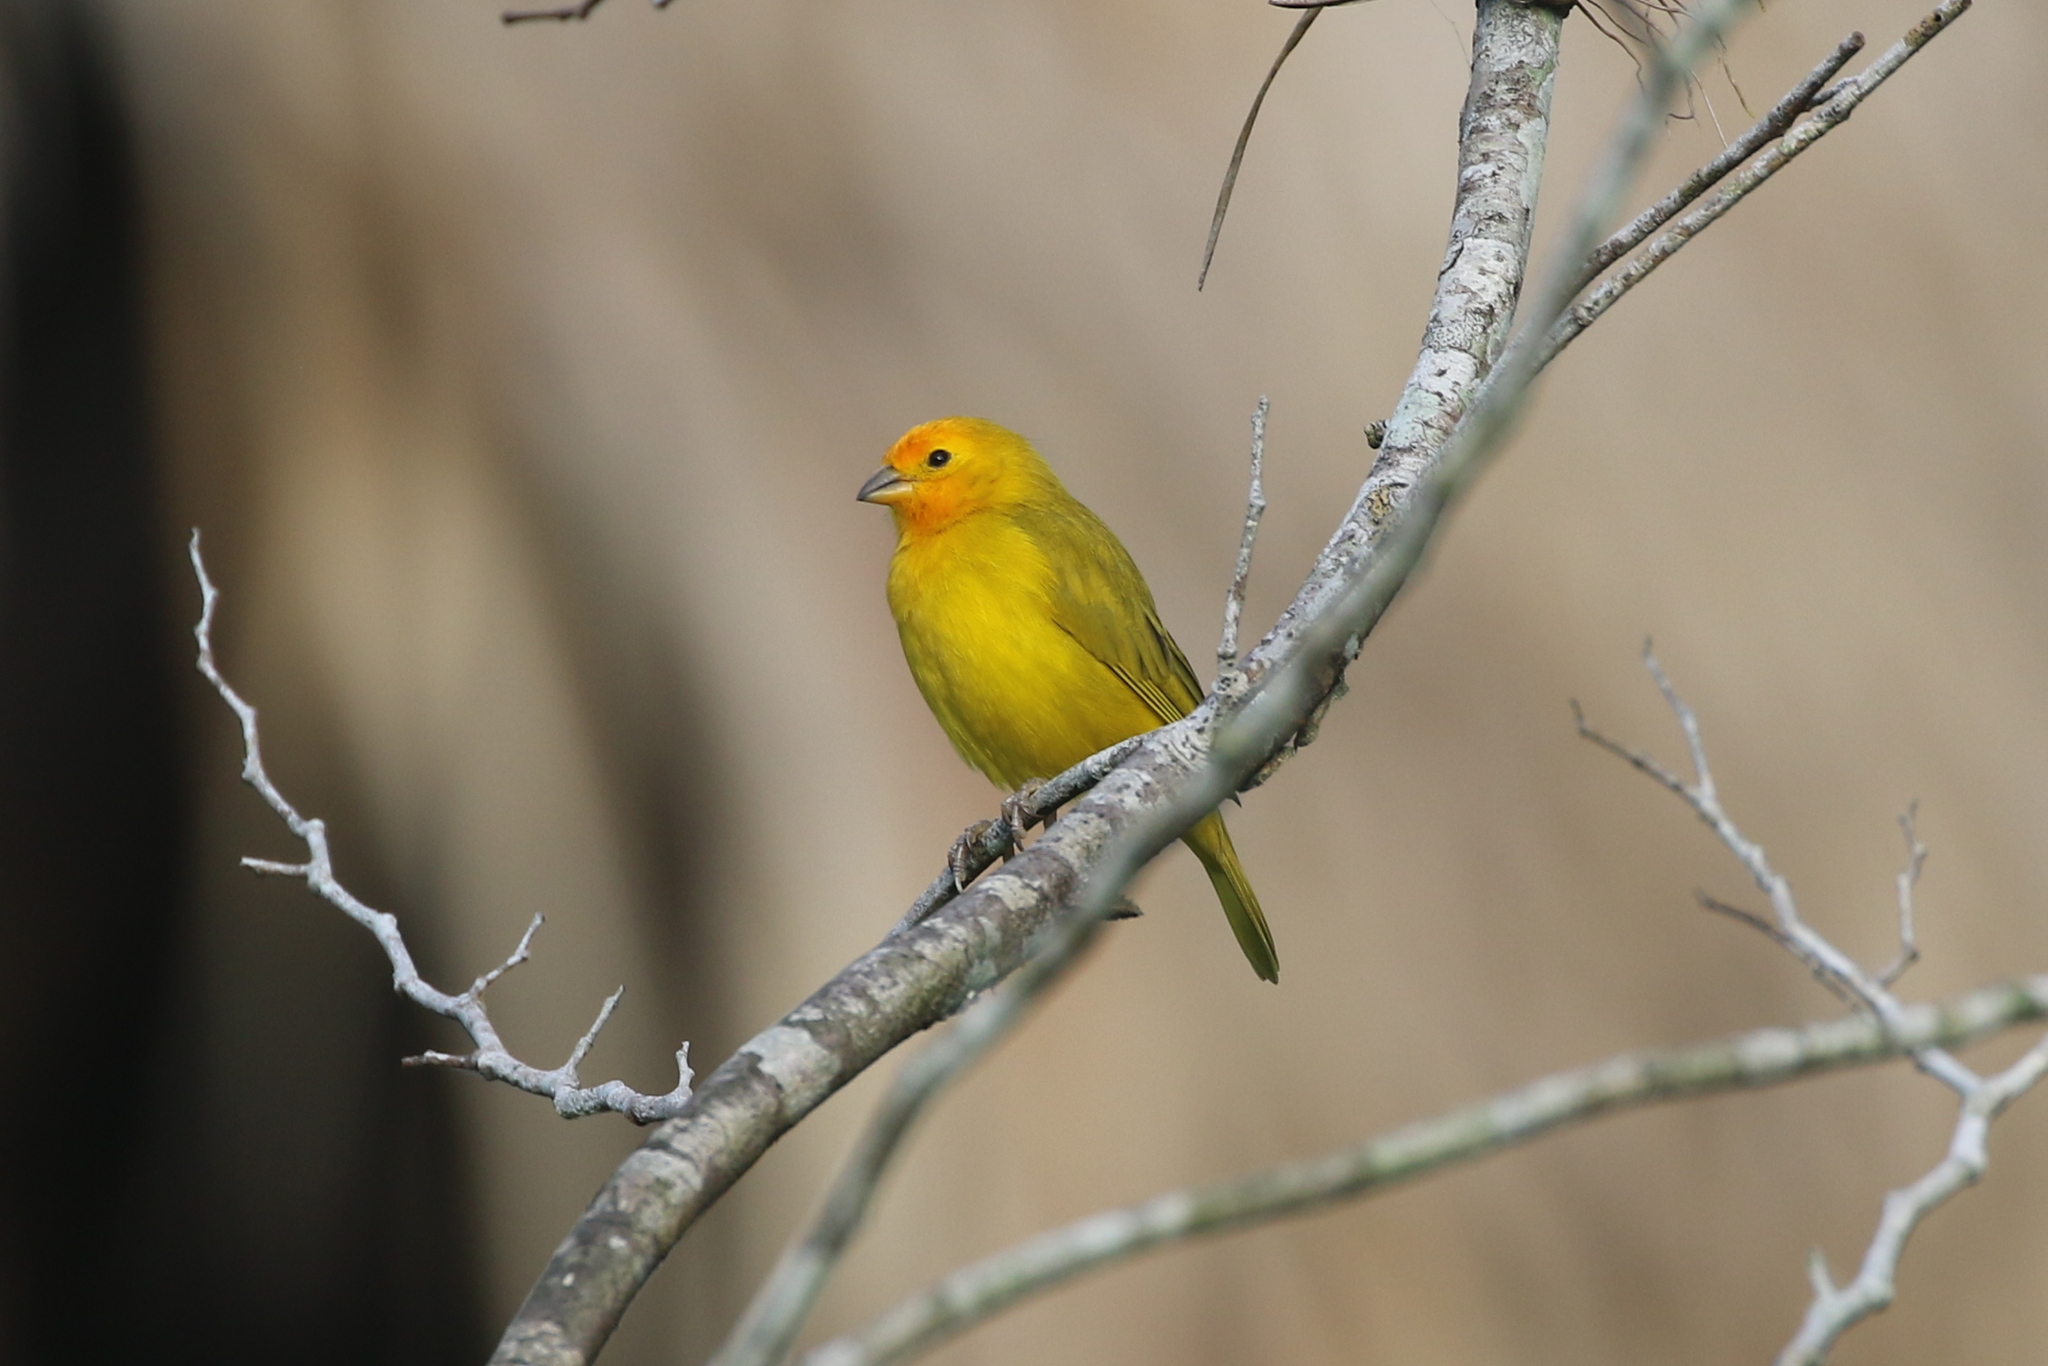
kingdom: Animalia
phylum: Chordata
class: Aves
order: Passeriformes
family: Thraupidae
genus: Sicalis
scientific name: Sicalis flaveola
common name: Saffron finch
